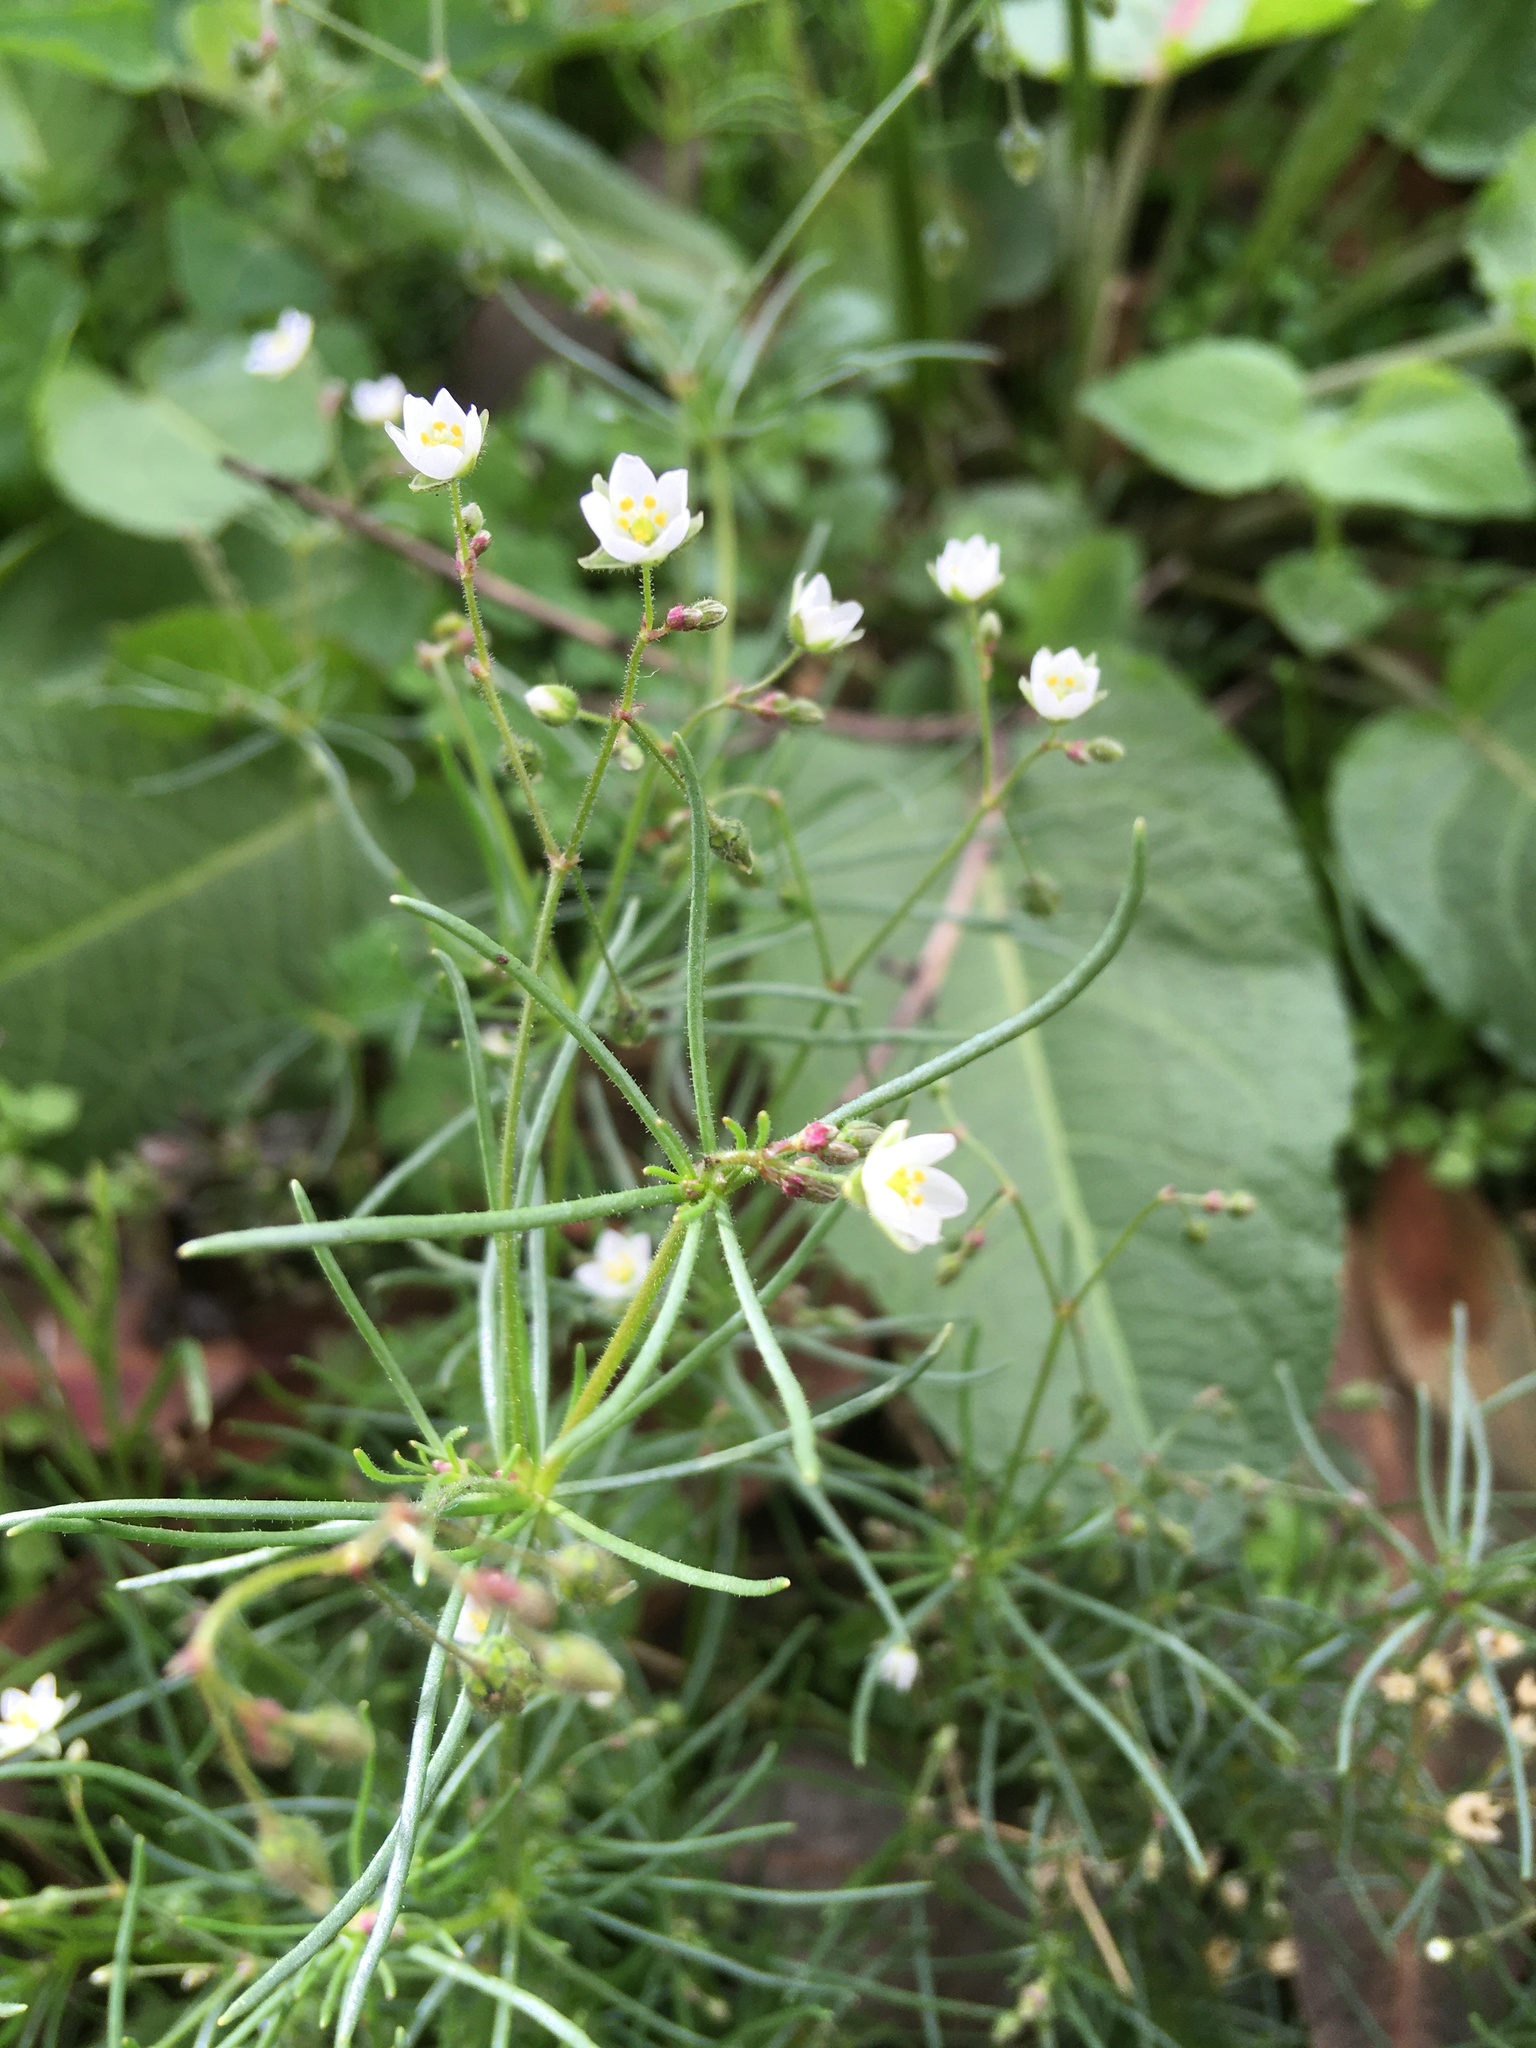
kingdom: Plantae
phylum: Tracheophyta
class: Magnoliopsida
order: Caryophyllales
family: Caryophyllaceae
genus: Spergula
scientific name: Spergula arvensis
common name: Corn spurrey
